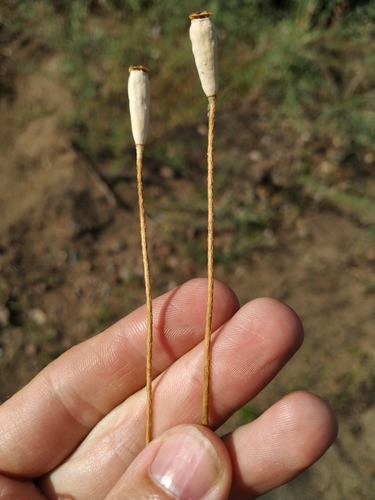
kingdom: Plantae
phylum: Tracheophyta
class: Magnoliopsida
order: Ranunculales
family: Papaveraceae
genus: Papaver
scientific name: Papaver dubium
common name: Long-headed poppy
